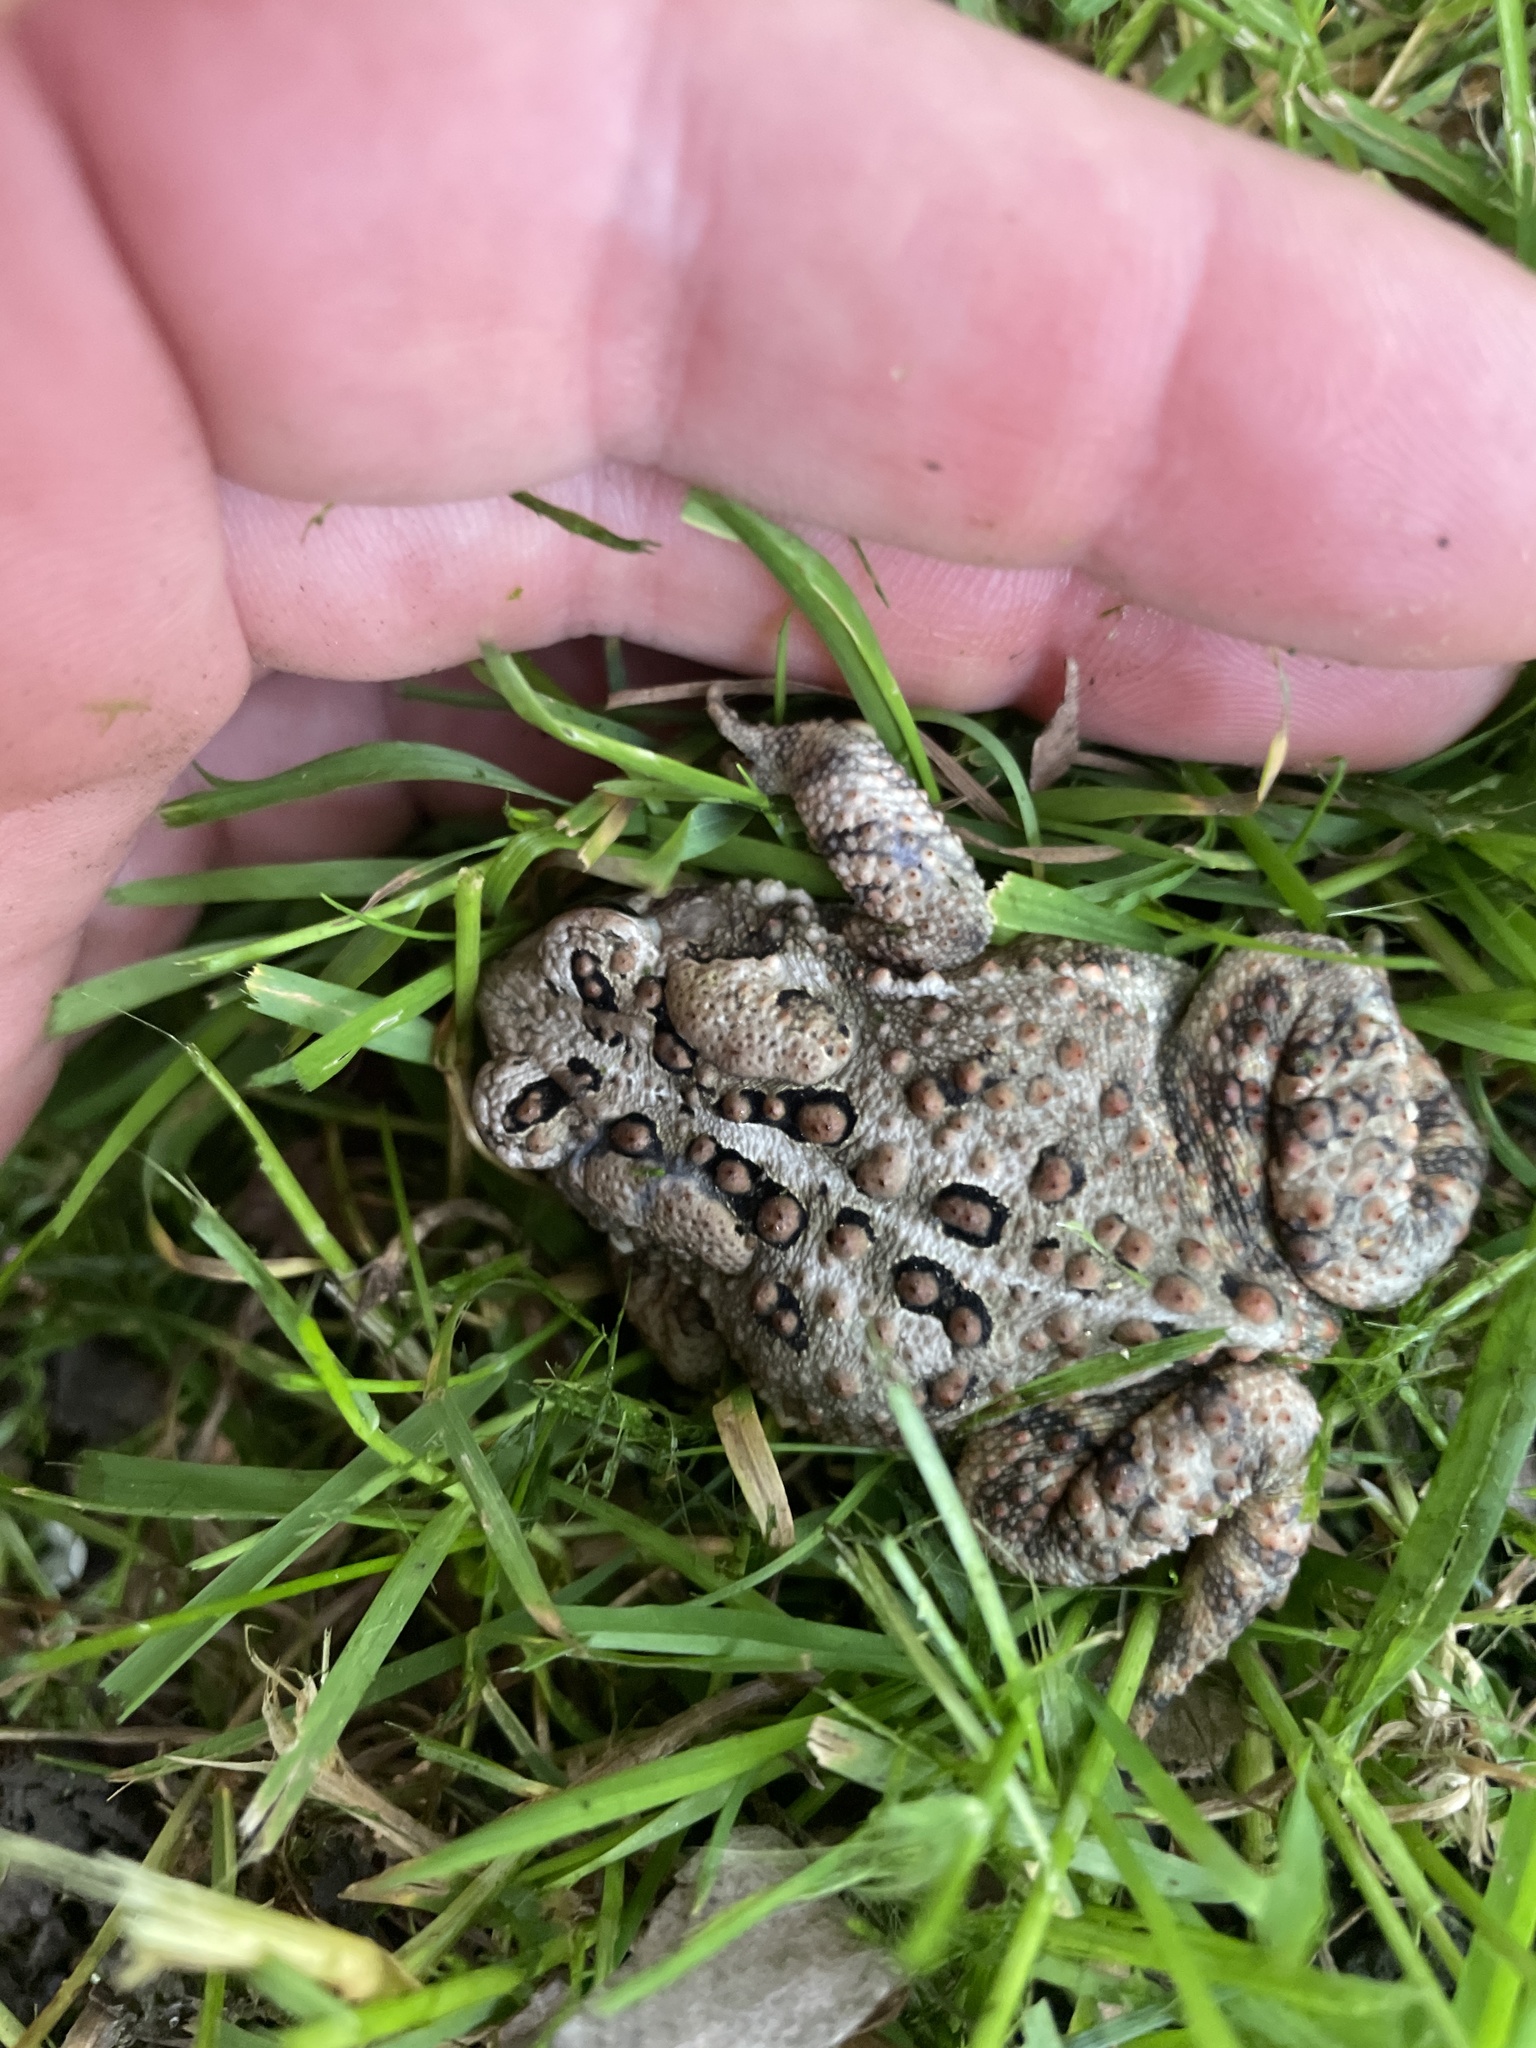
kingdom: Animalia
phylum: Chordata
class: Amphibia
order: Anura
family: Bufonidae
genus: Anaxyrus
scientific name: Anaxyrus americanus
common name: American toad
